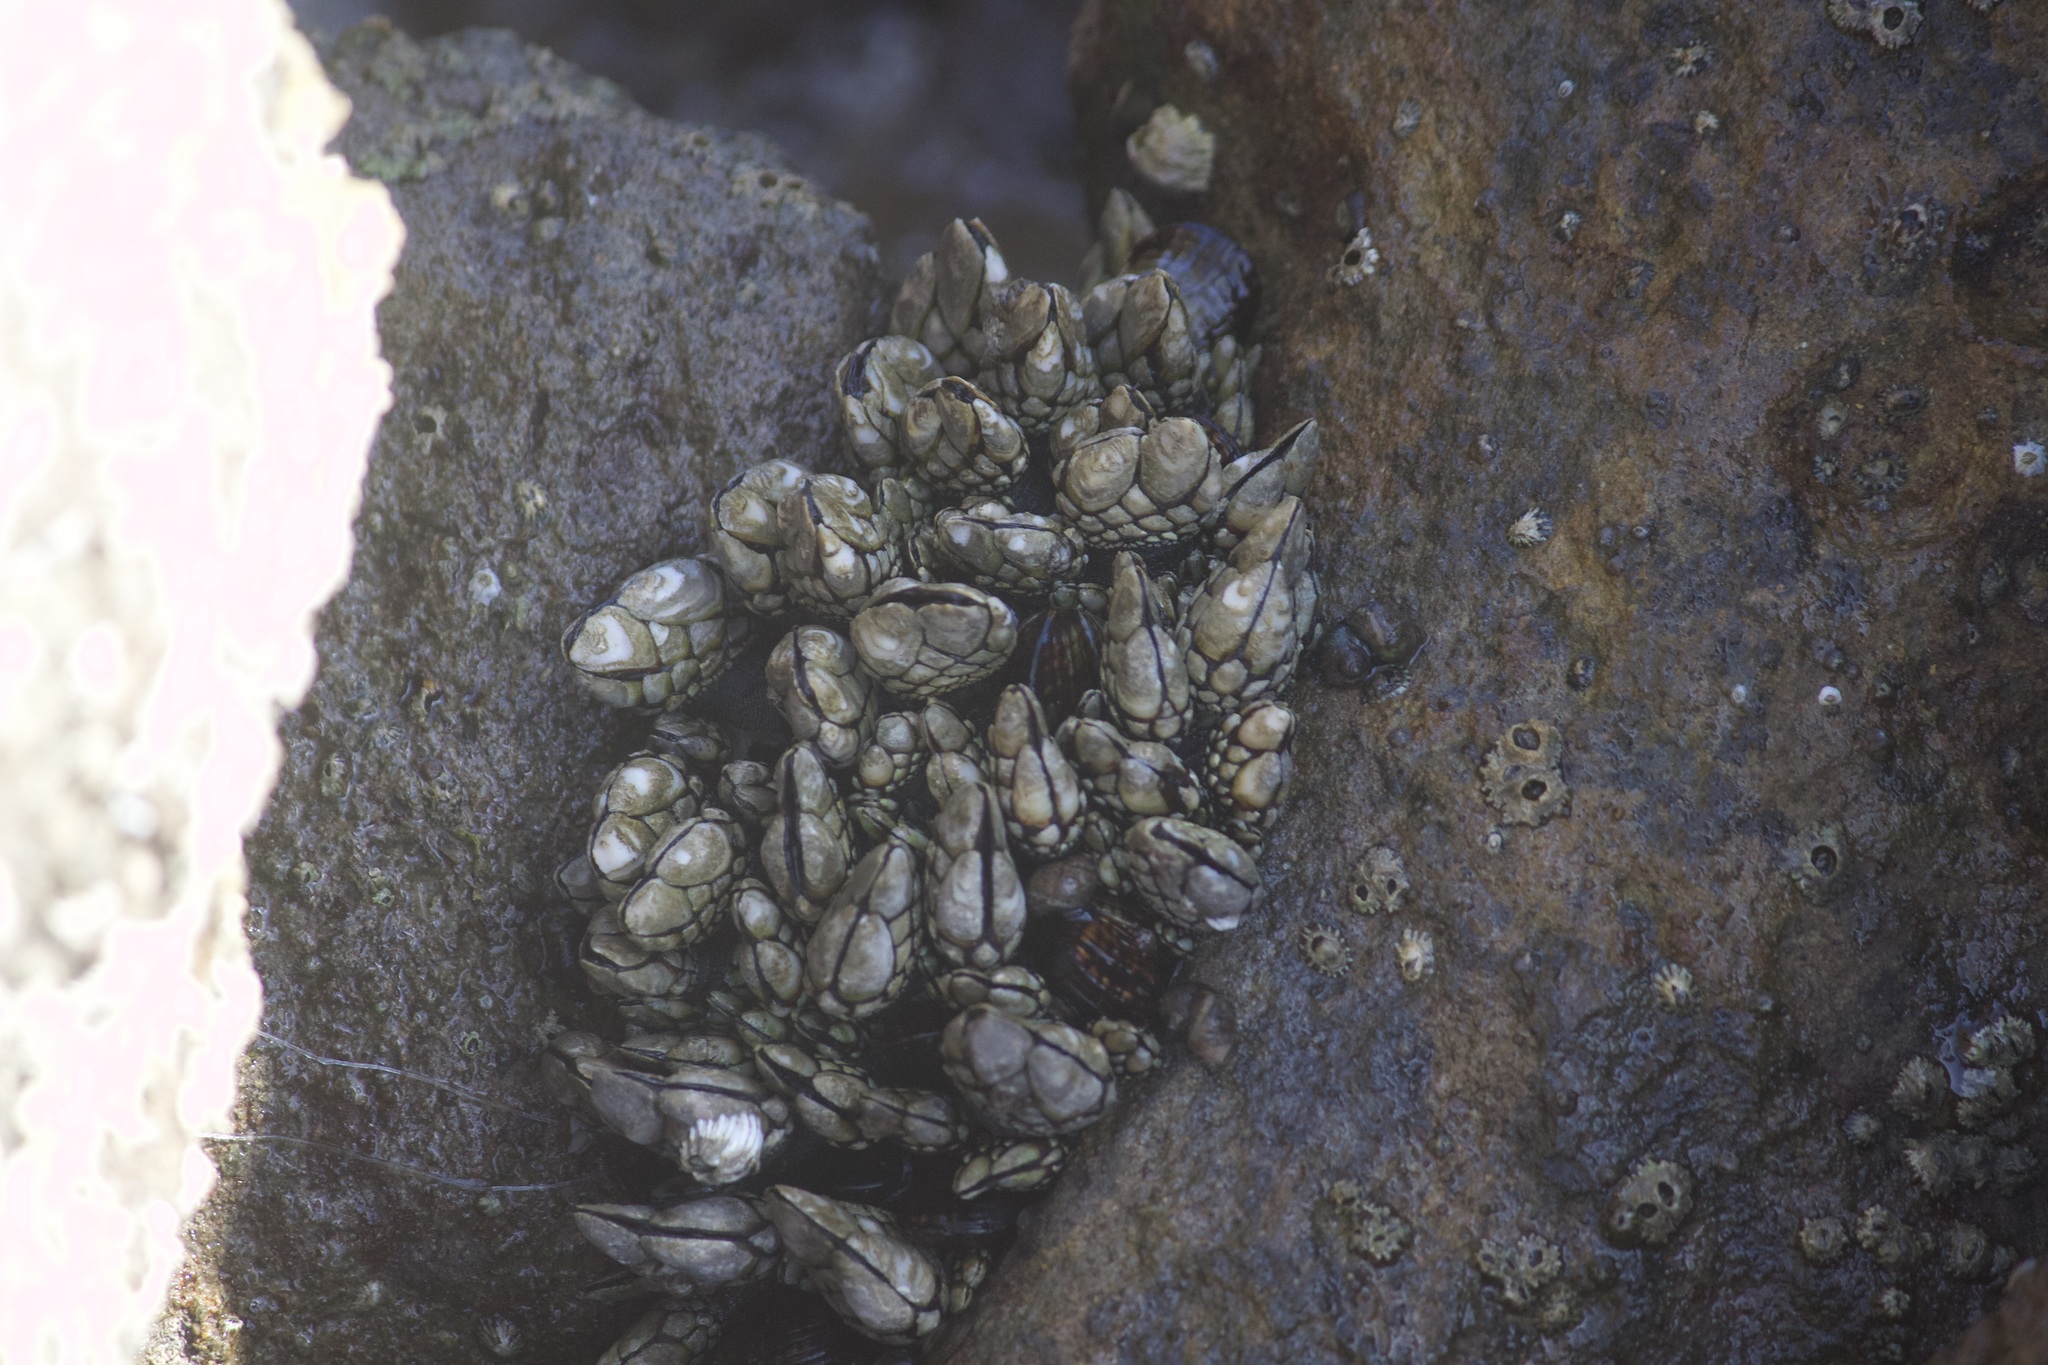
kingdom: Animalia
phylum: Arthropoda
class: Maxillopoda
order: Pedunculata
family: Pollicipedidae
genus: Pollicipes
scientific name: Pollicipes polymerus
